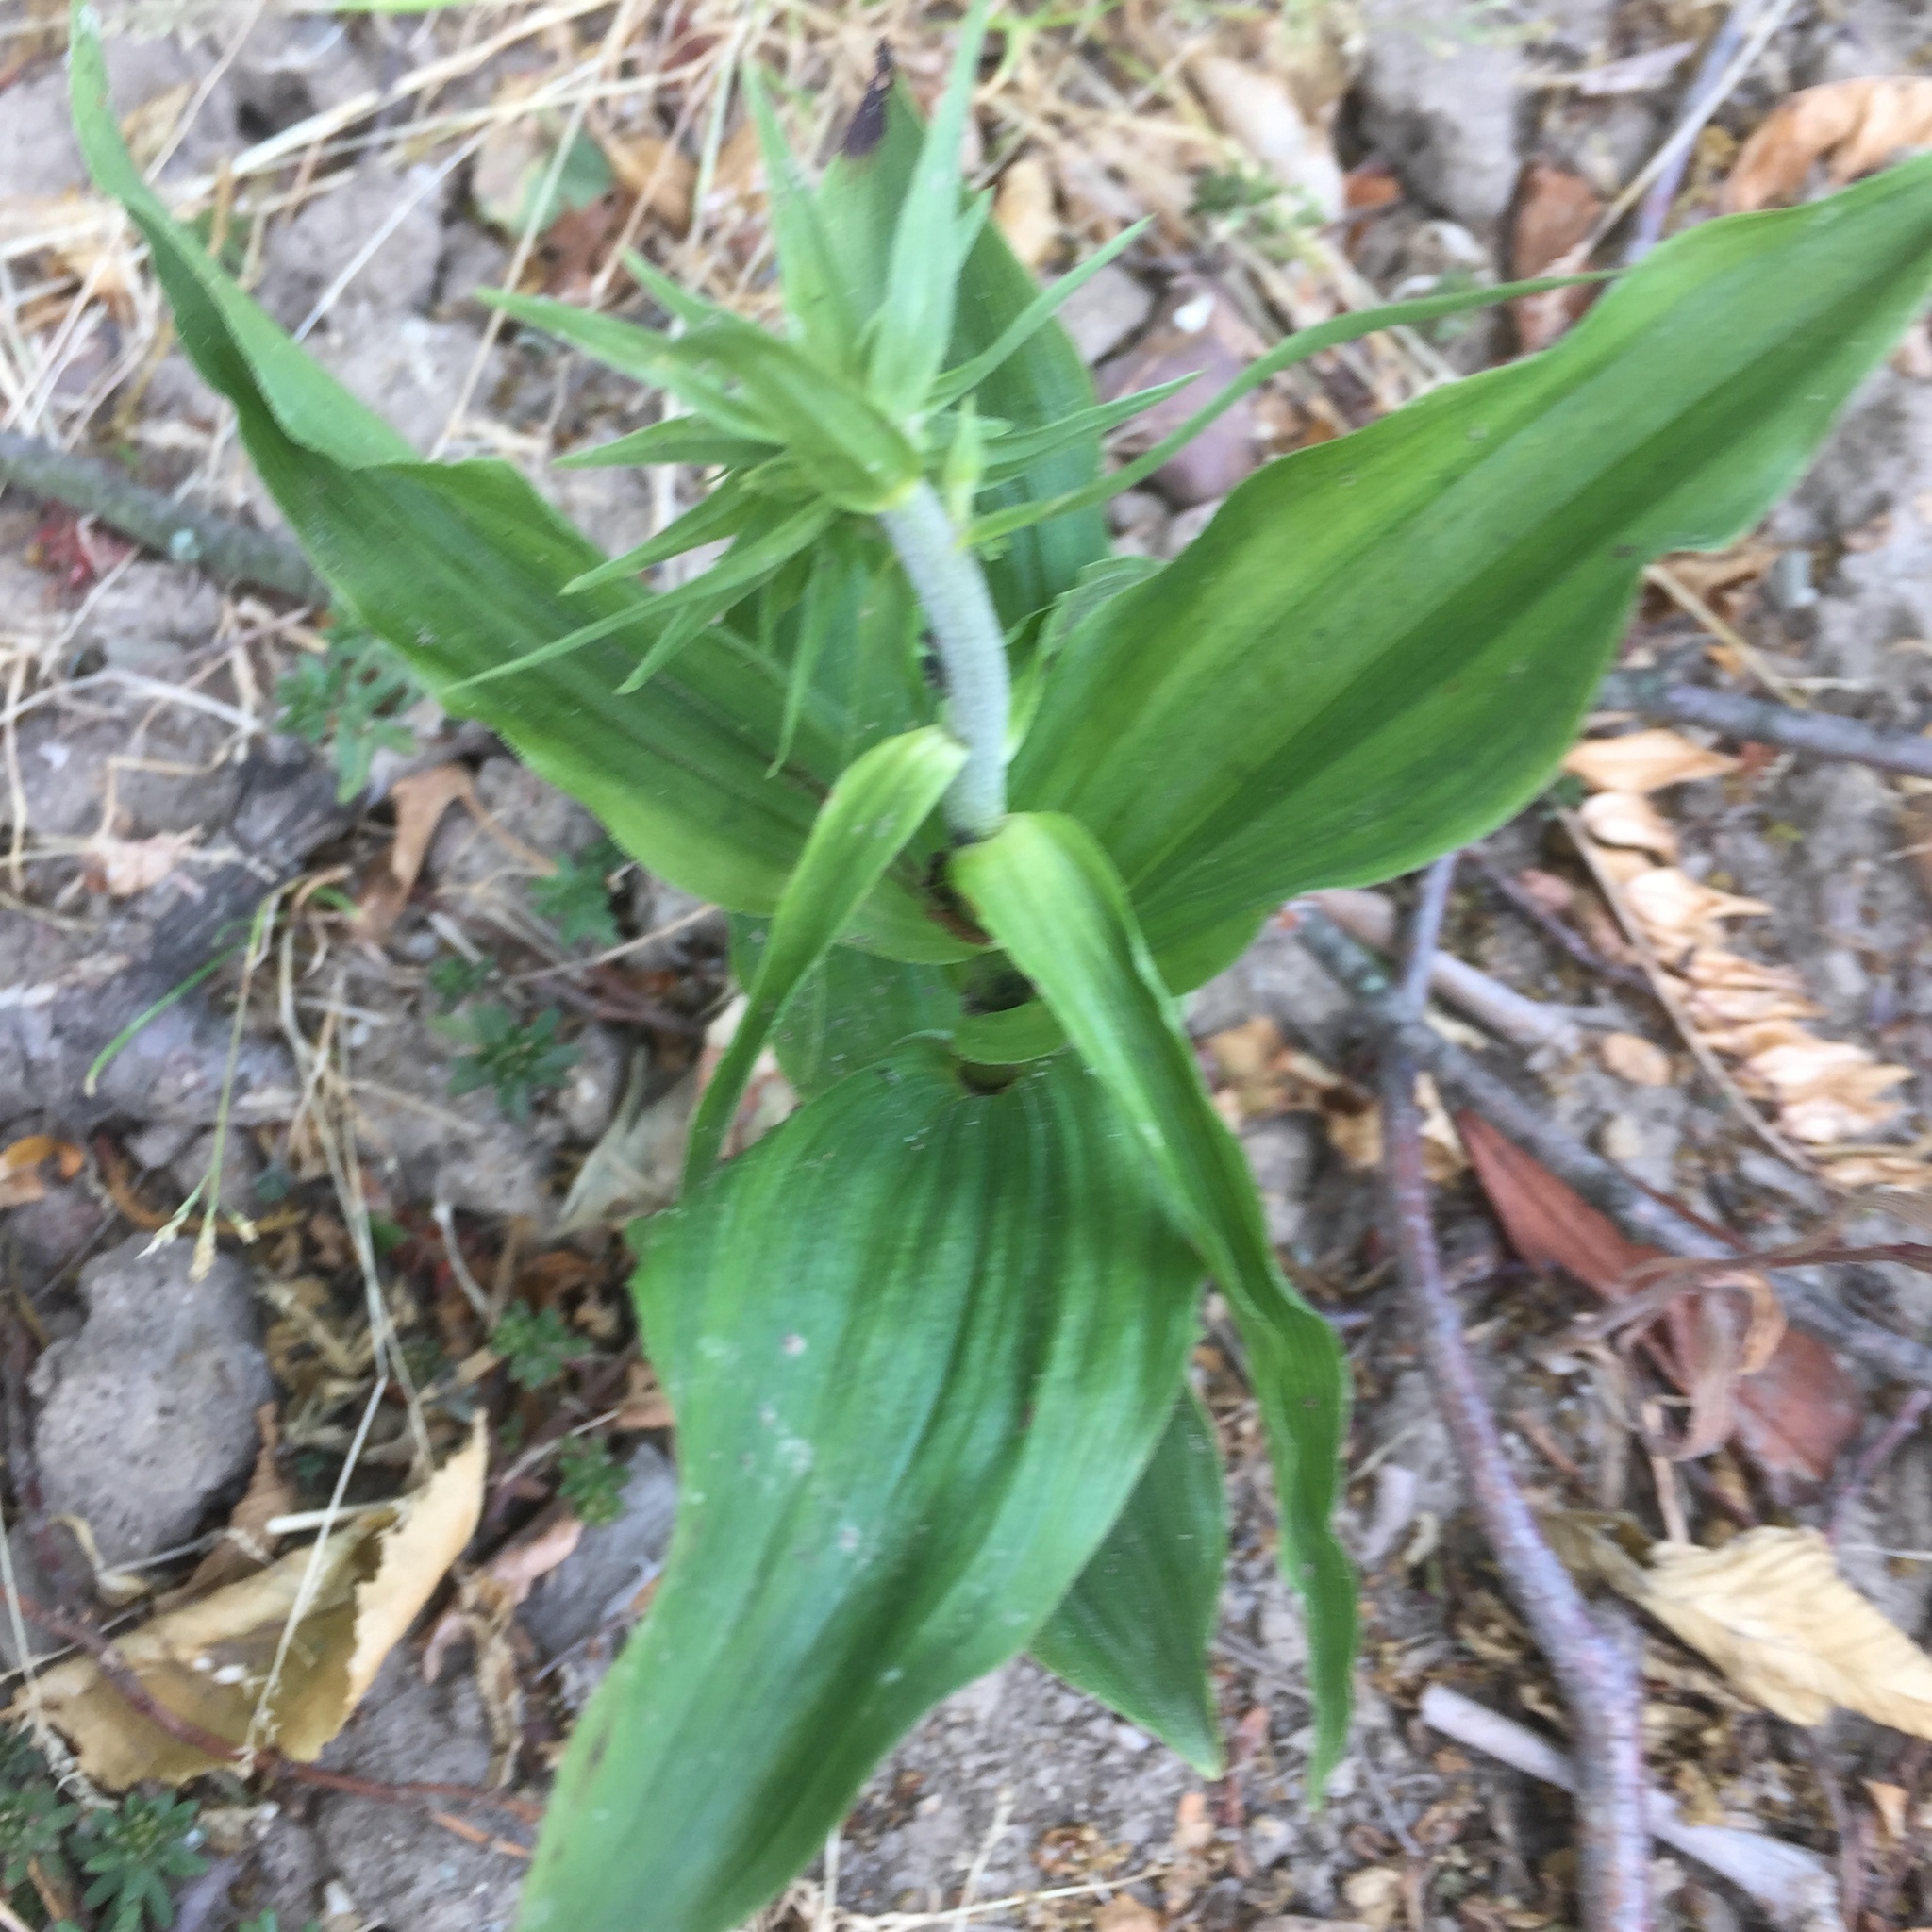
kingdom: Plantae
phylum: Tracheophyta
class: Liliopsida
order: Asparagales
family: Orchidaceae
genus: Epipactis
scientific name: Epipactis helleborine
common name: Broad-leaved helleborine
